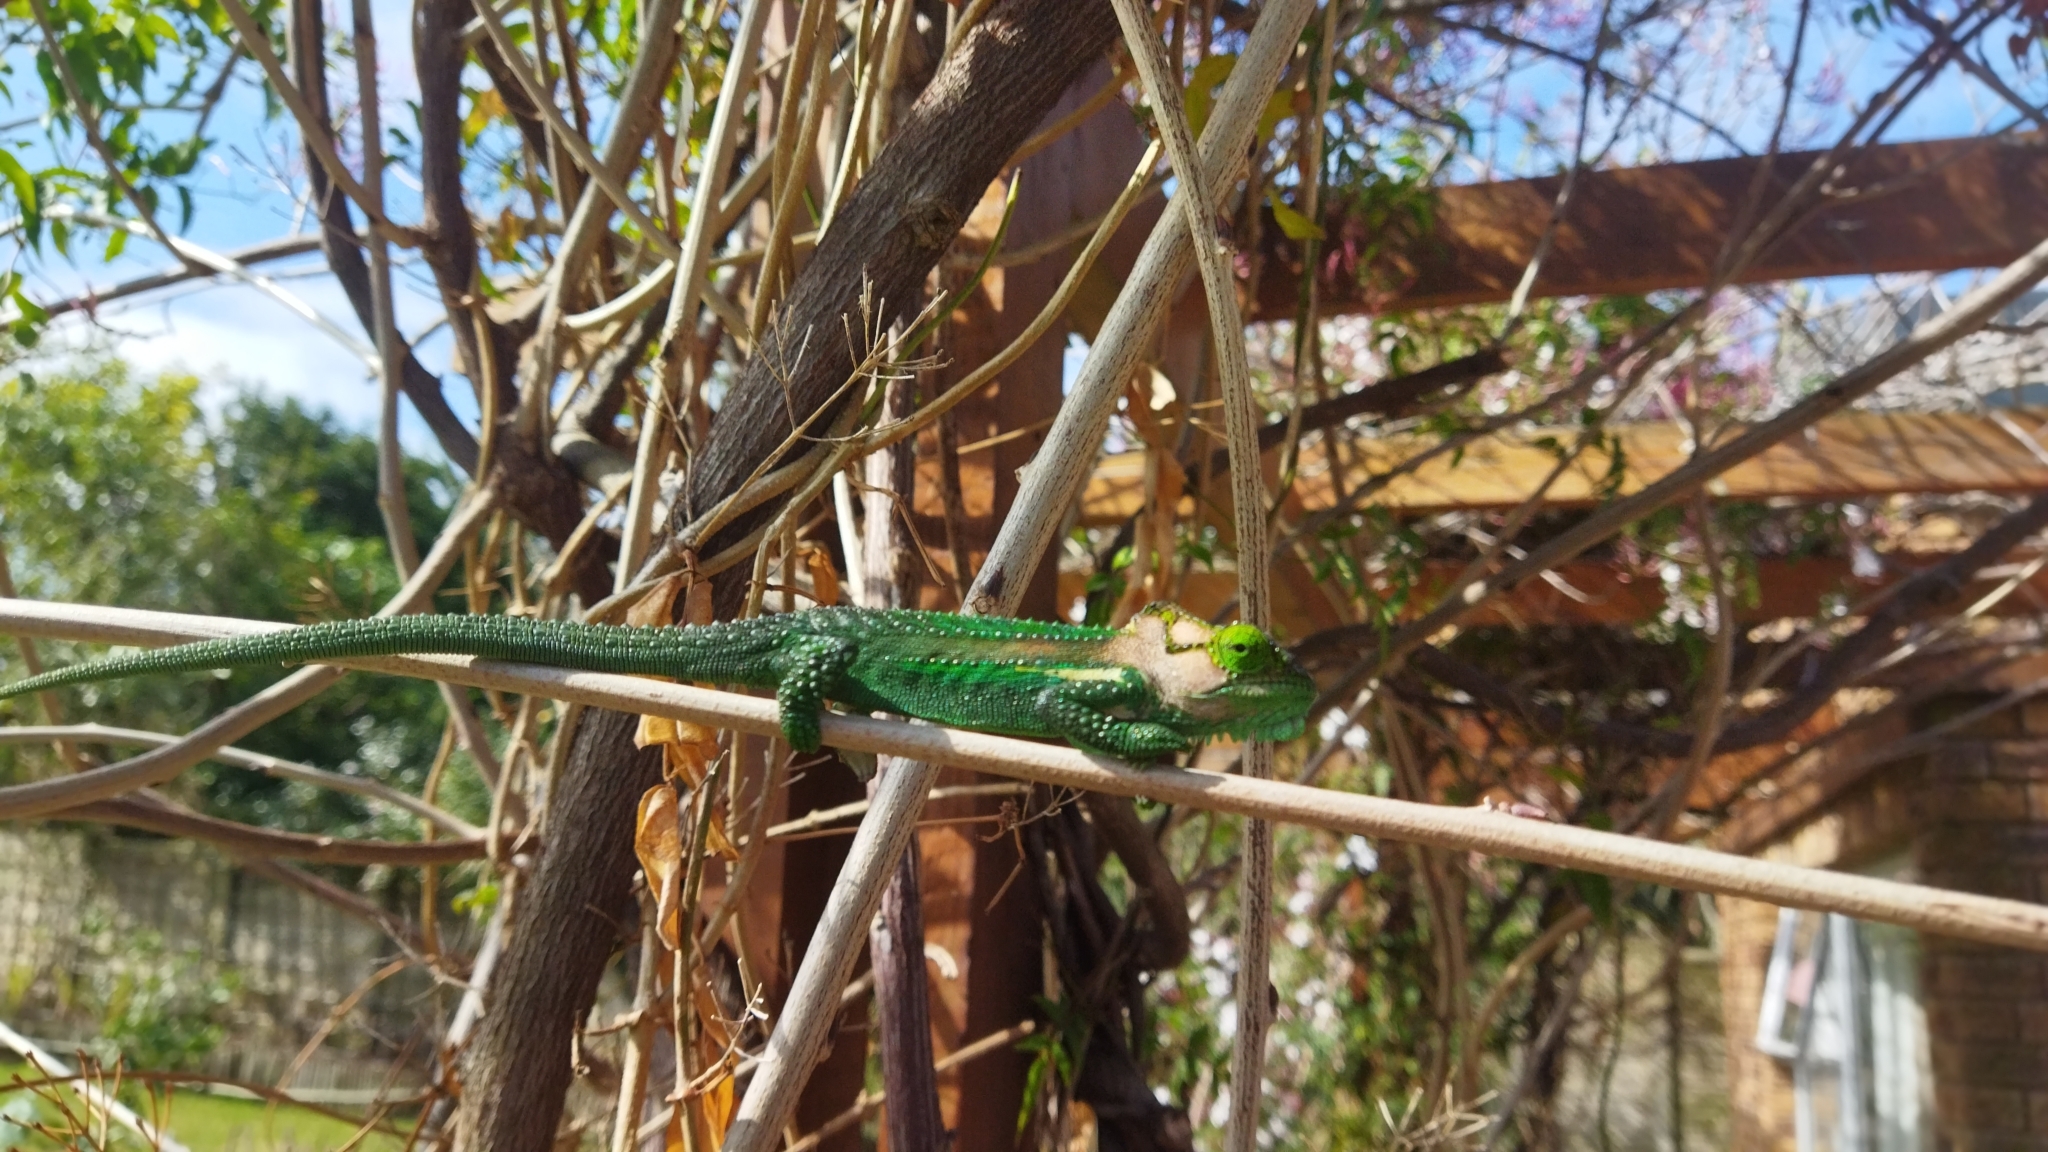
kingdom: Animalia
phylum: Chordata
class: Squamata
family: Chamaeleonidae
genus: Bradypodion
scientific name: Bradypodion damaranum
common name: Knysna dwarf chameleon
